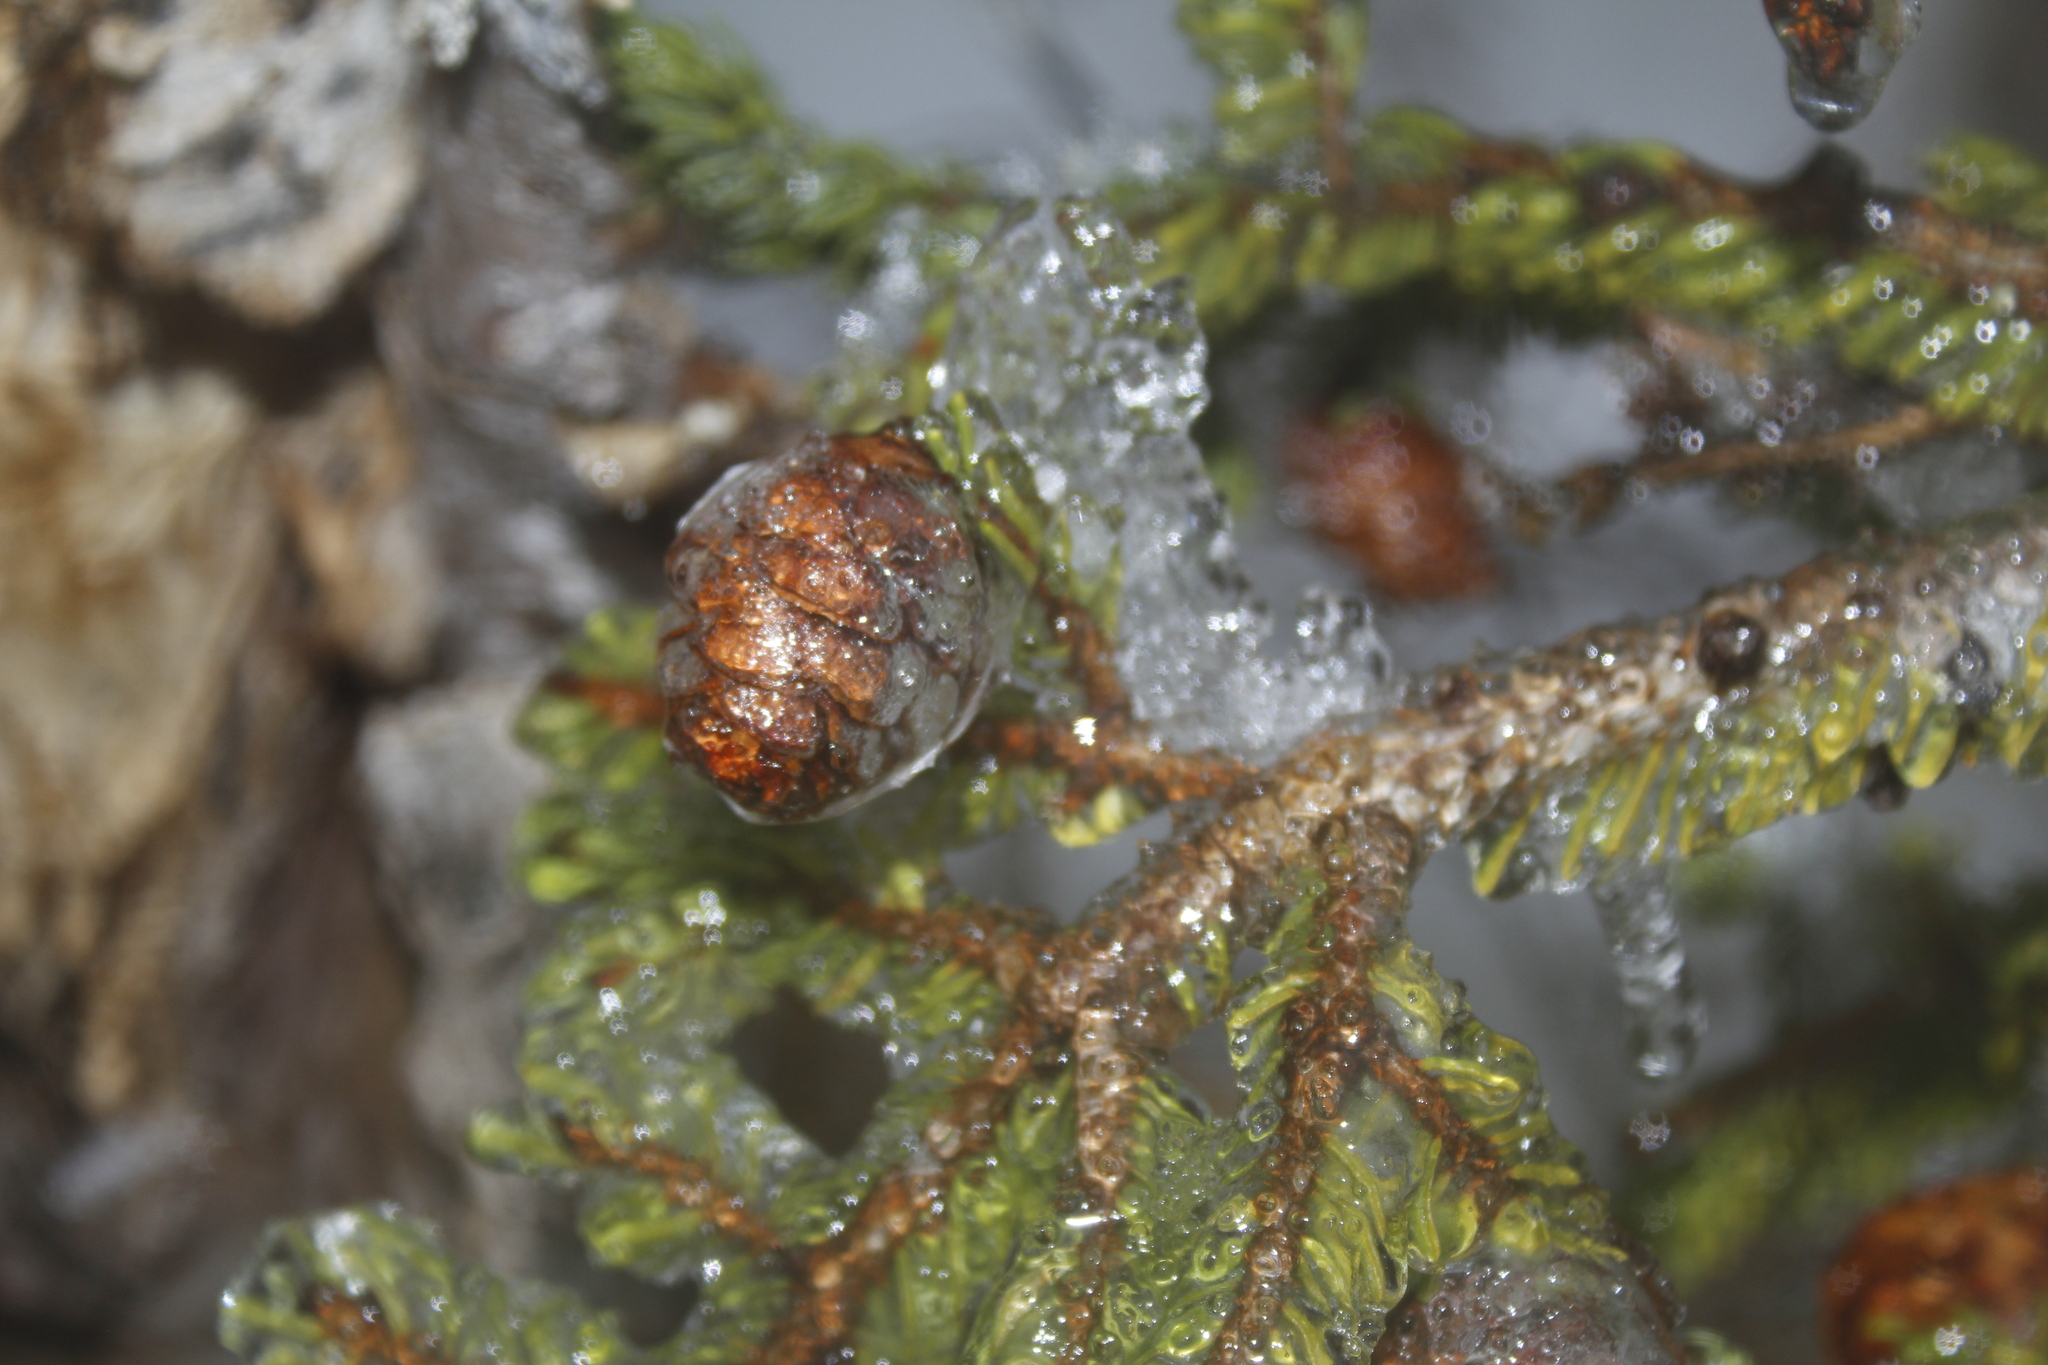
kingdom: Plantae
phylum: Tracheophyta
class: Pinopsida
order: Pinales
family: Pinaceae
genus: Picea
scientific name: Picea mariana
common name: Black spruce
